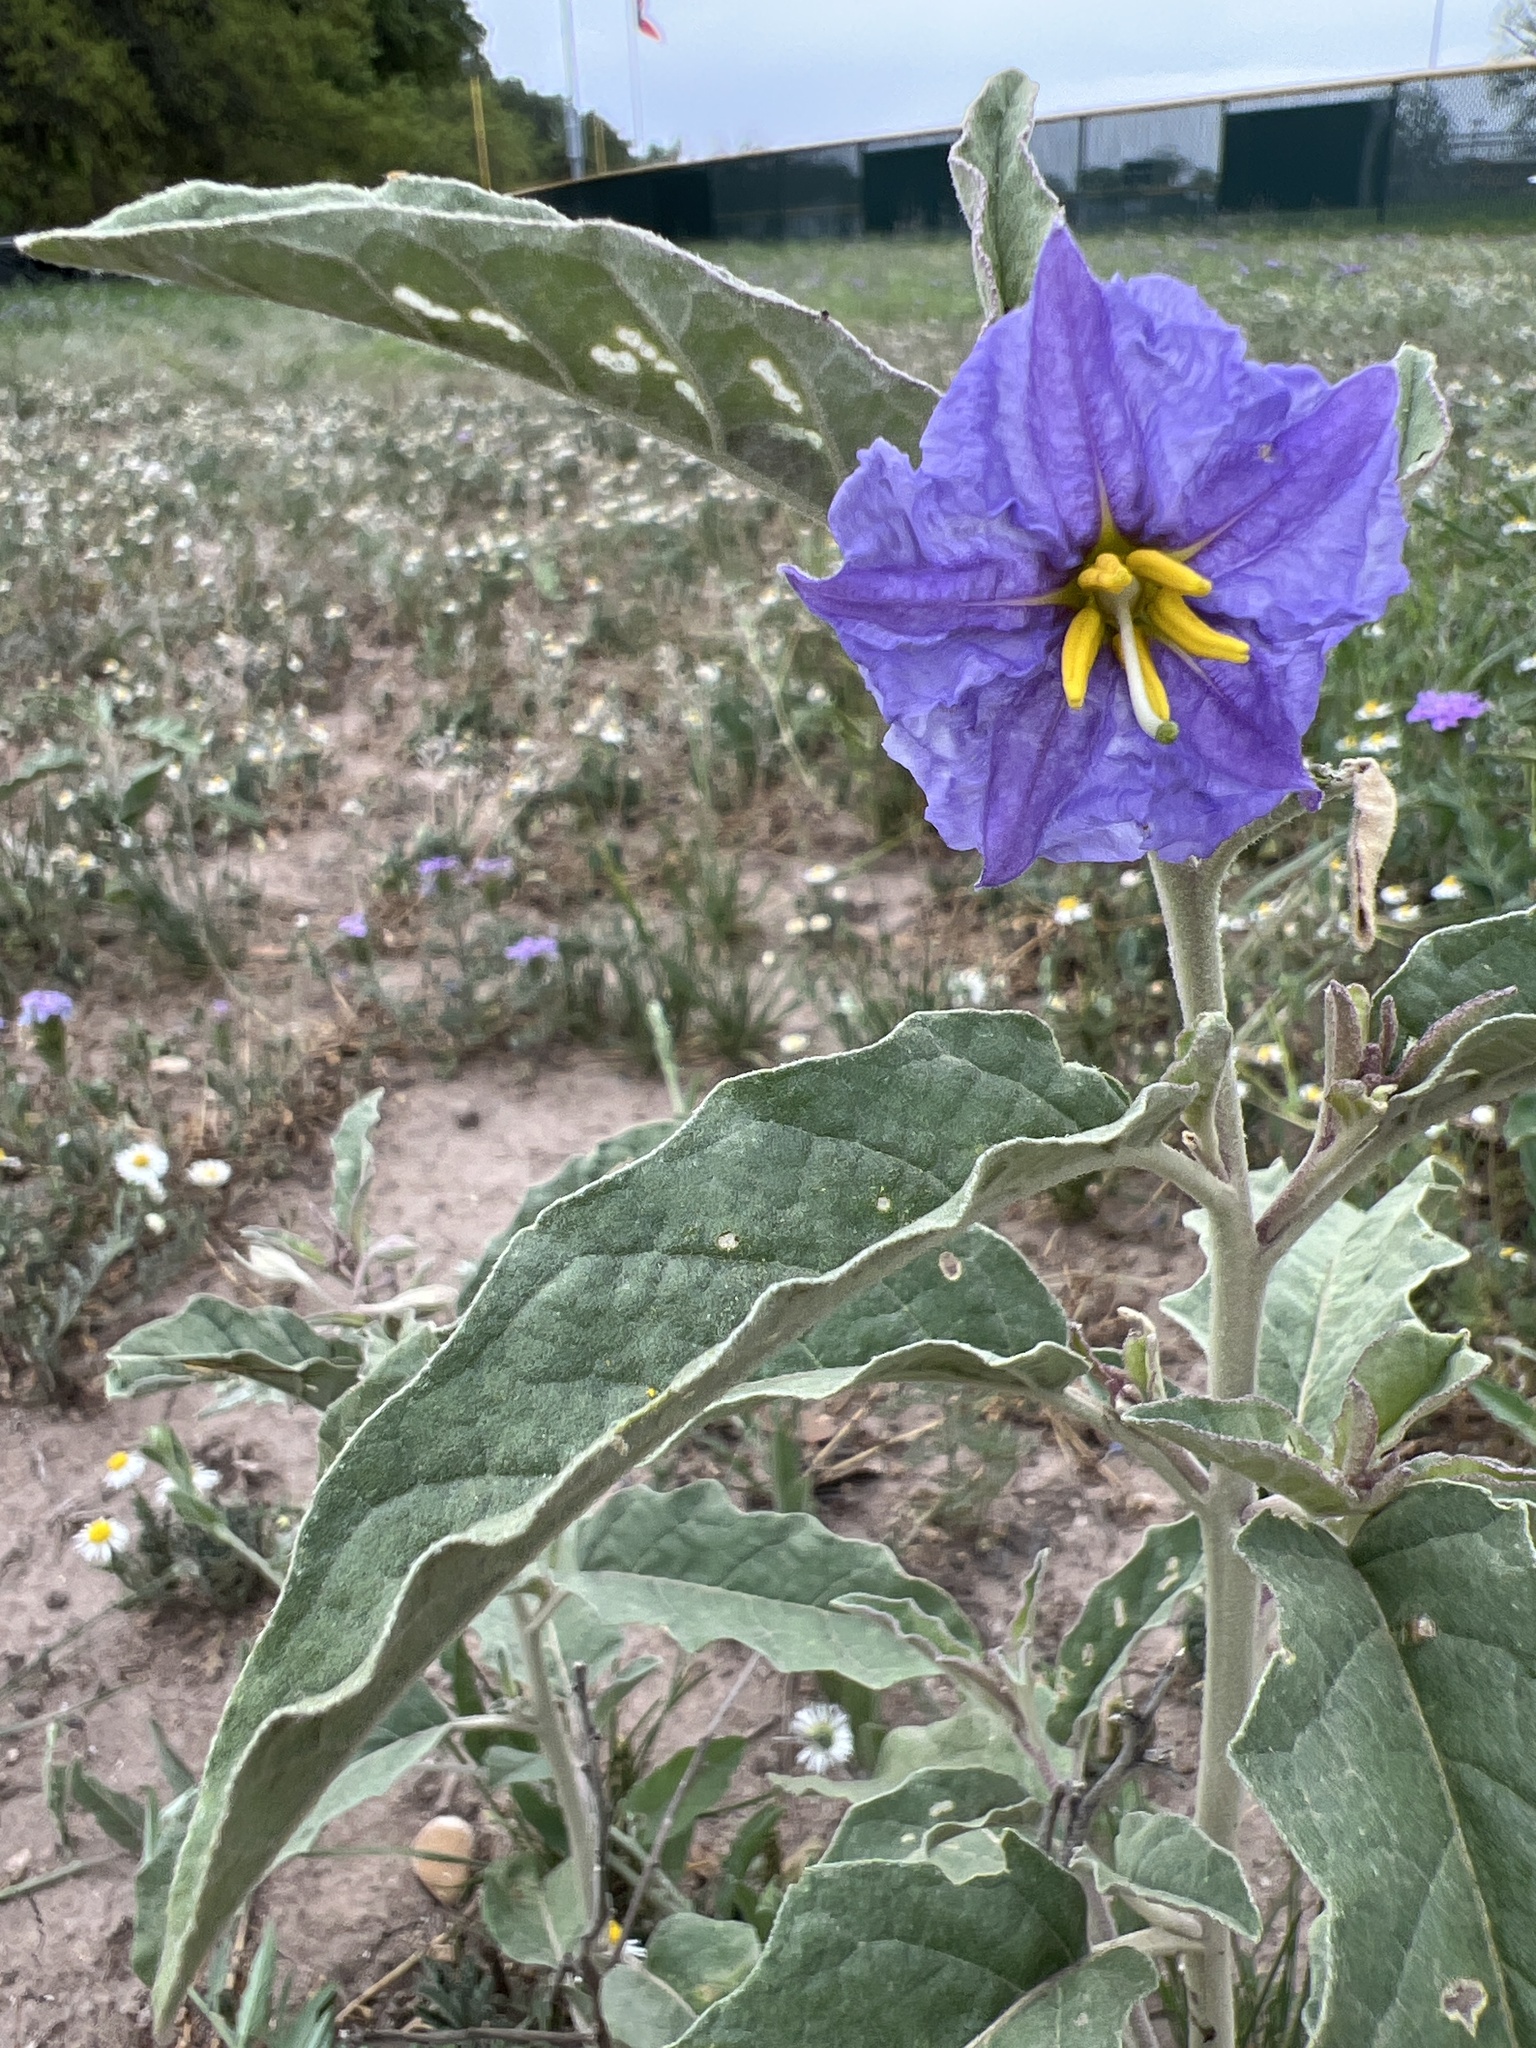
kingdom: Plantae
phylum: Tracheophyta
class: Magnoliopsida
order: Solanales
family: Solanaceae
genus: Solanum
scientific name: Solanum elaeagnifolium
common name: Silverleaf nightshade
